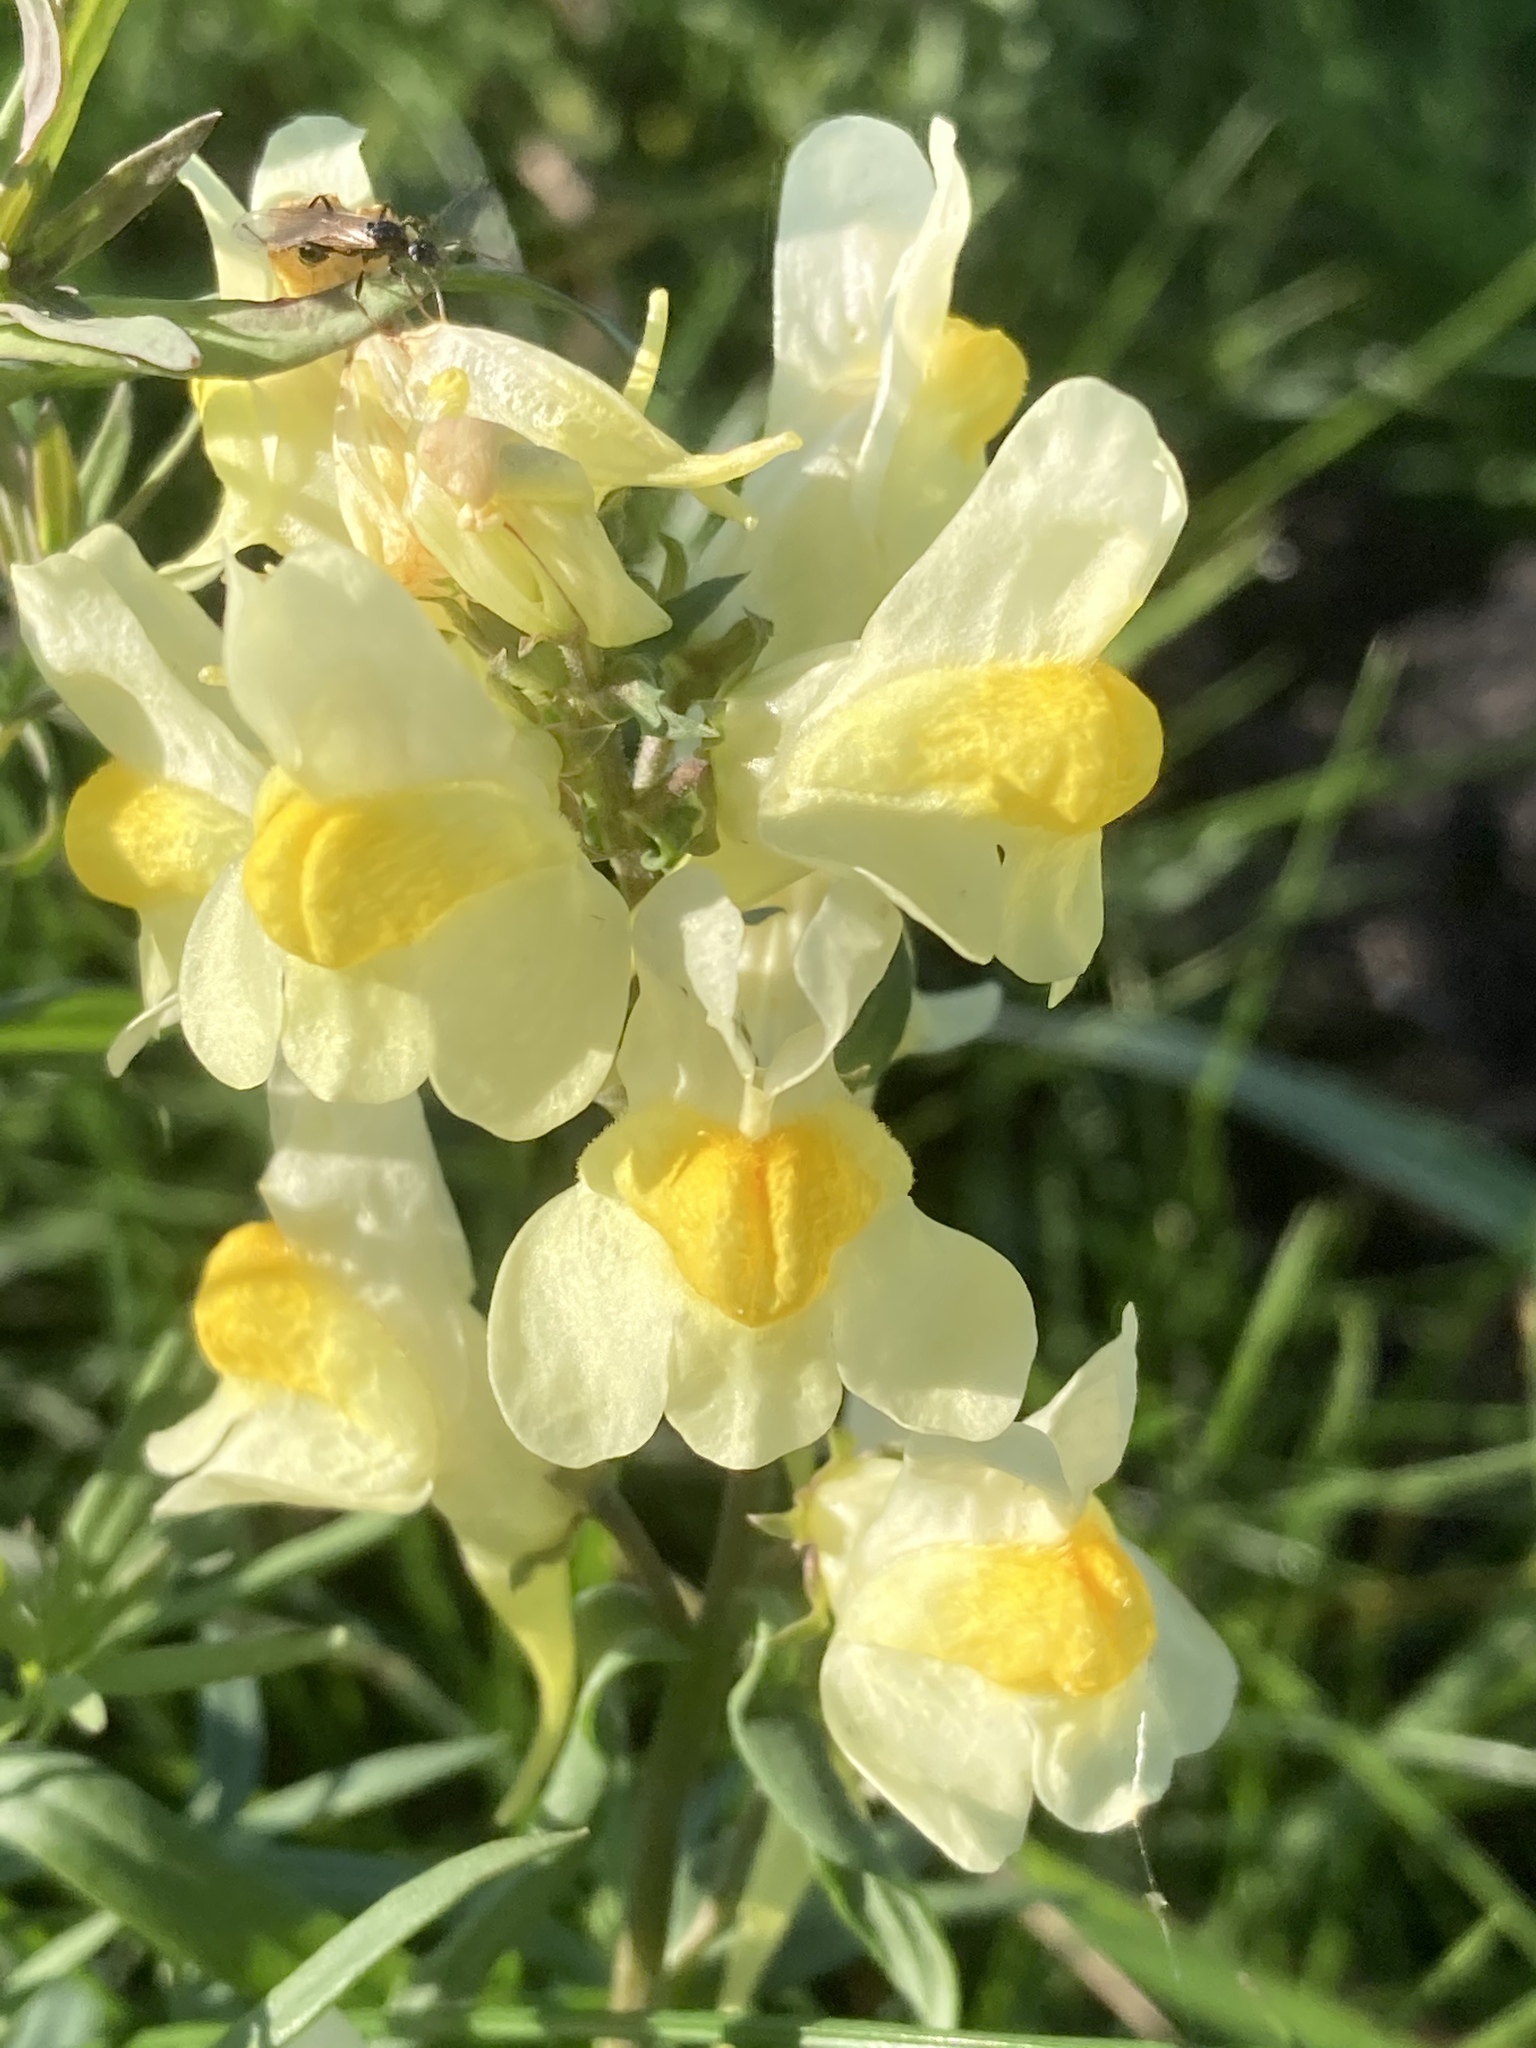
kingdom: Plantae
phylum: Tracheophyta
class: Magnoliopsida
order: Lamiales
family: Plantaginaceae
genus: Linaria
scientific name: Linaria vulgaris
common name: Butter and eggs
